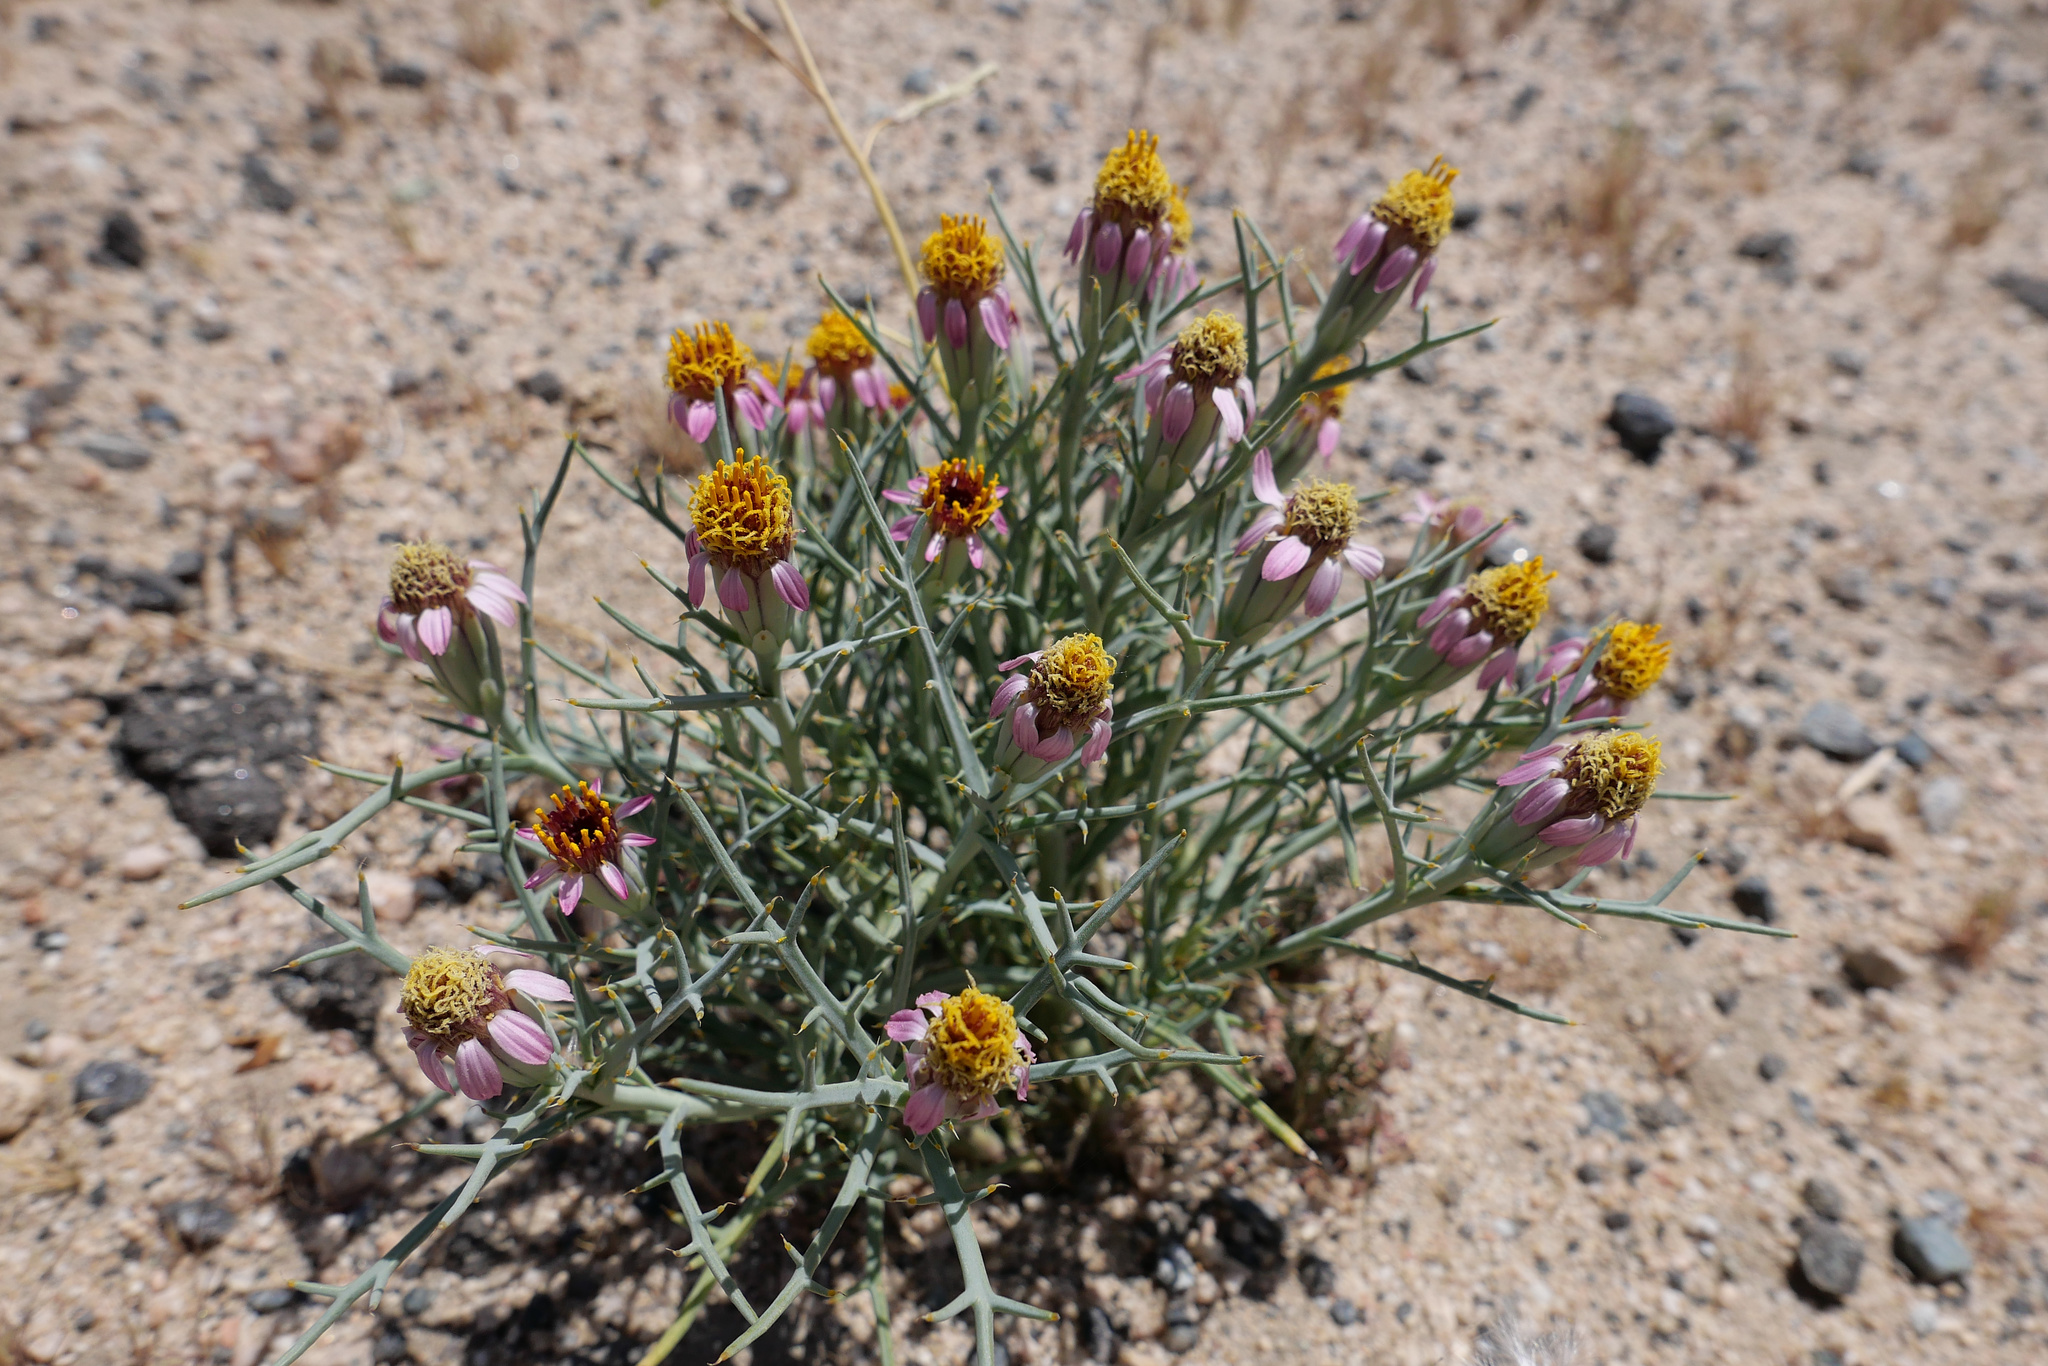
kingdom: Plantae
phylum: Tracheophyta
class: Magnoliopsida
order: Asterales
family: Asteraceae
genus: Nicolletia
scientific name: Nicolletia occidentalis
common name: Hole-in-the-sand-plant
